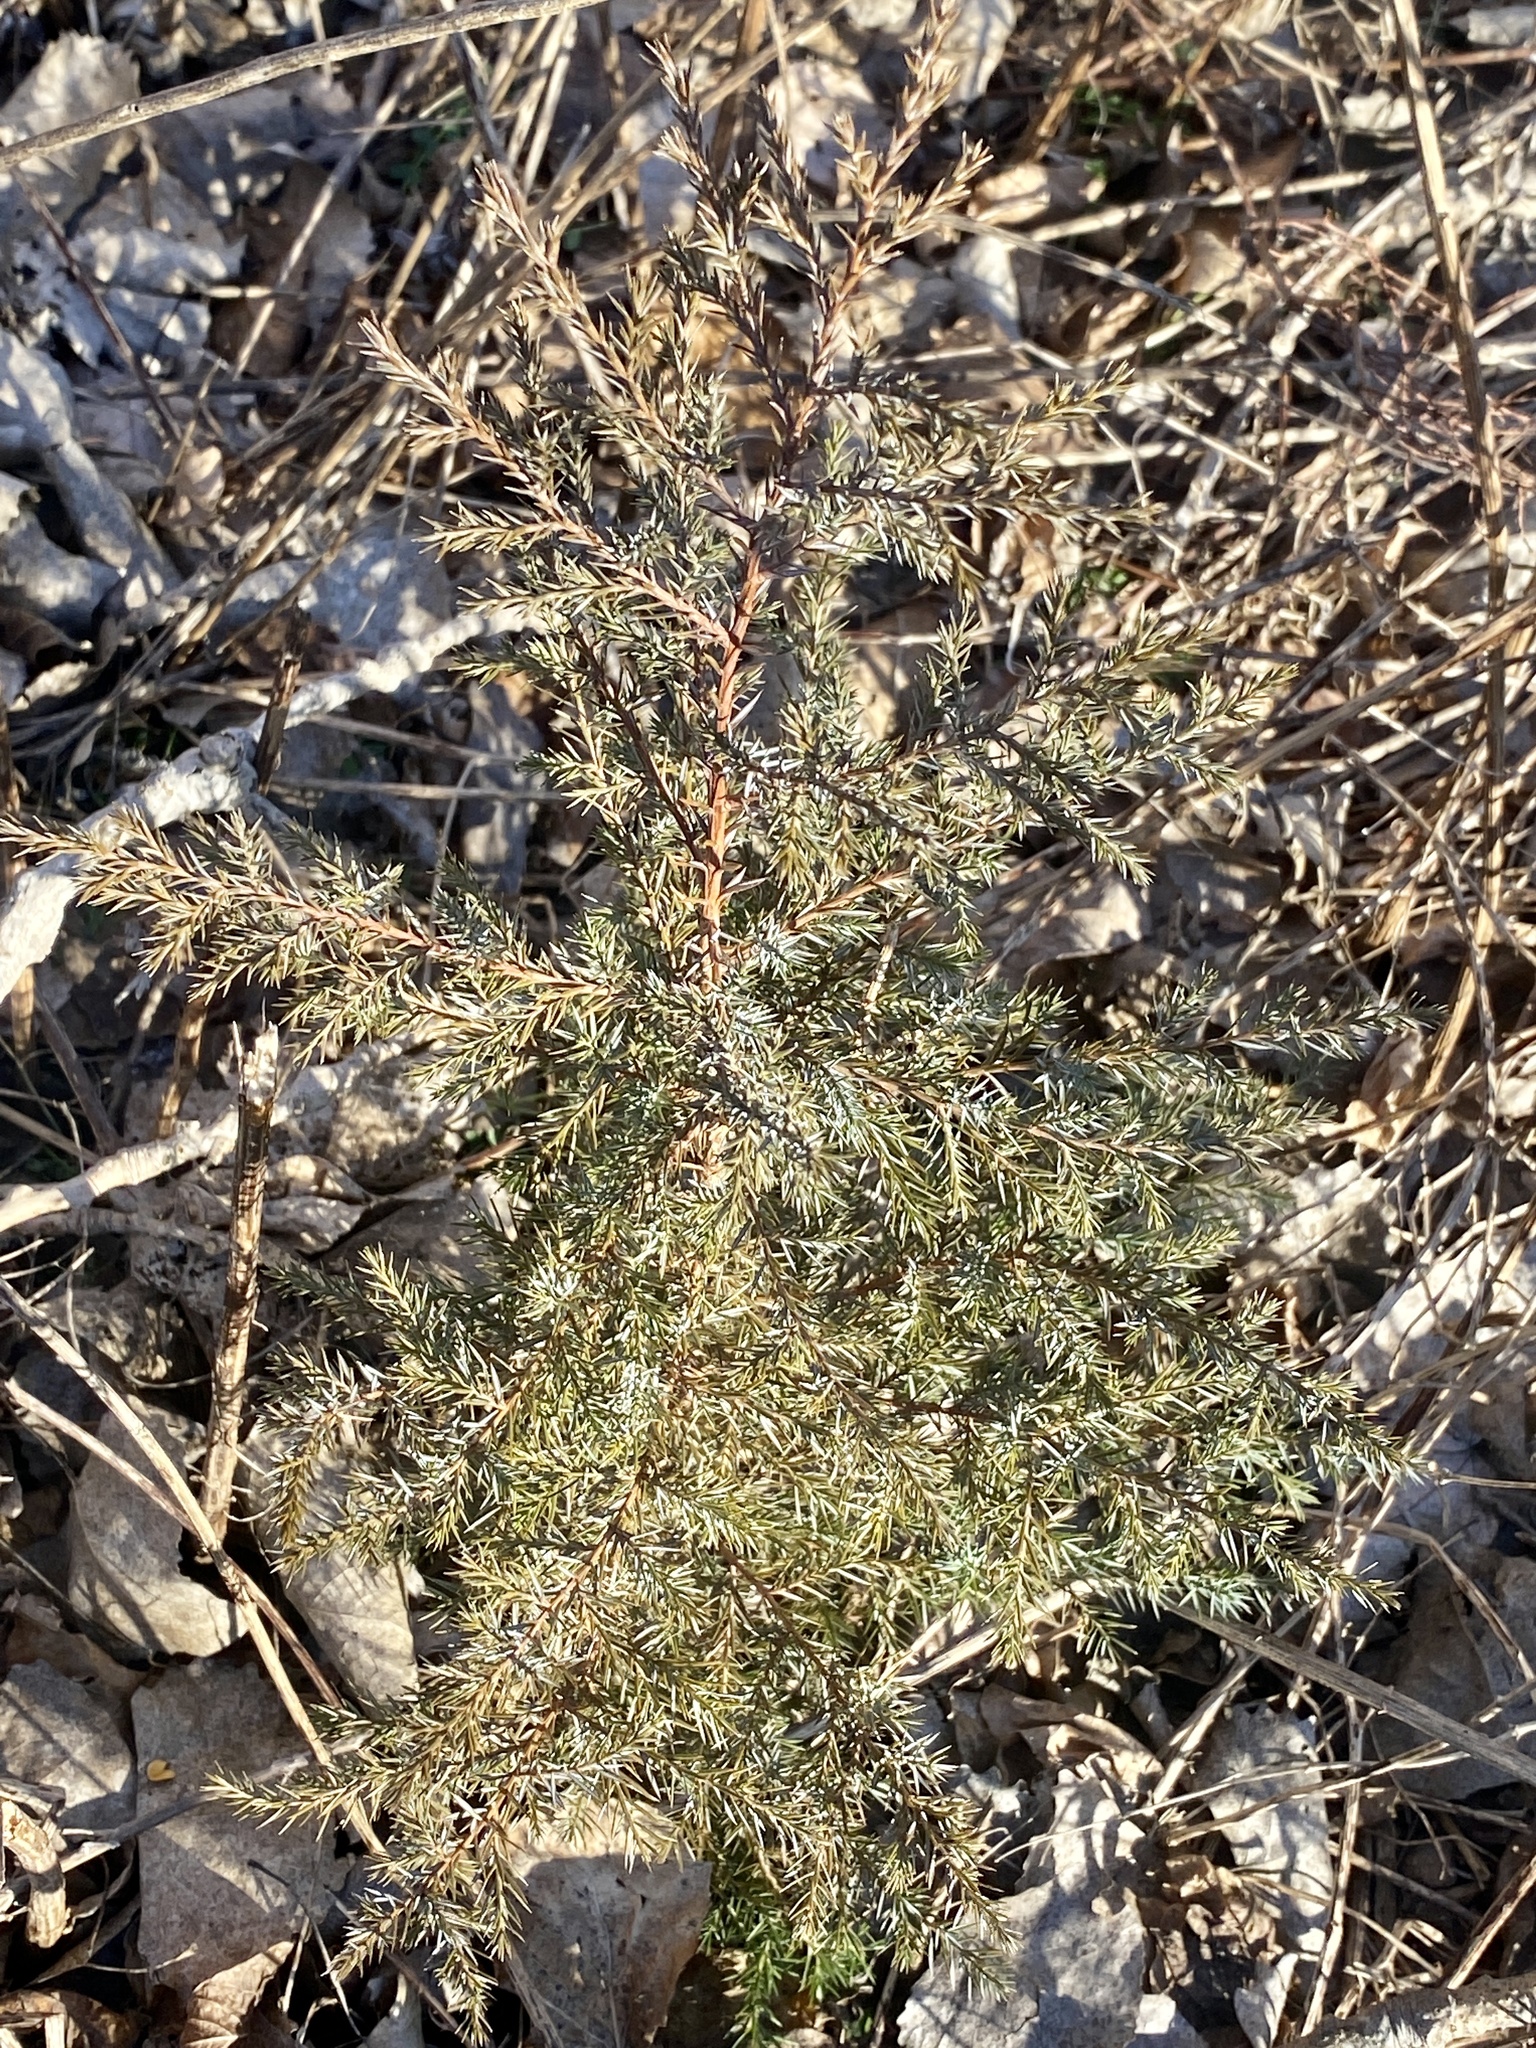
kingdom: Plantae
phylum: Tracheophyta
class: Pinopsida
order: Pinales
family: Cupressaceae
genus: Juniperus
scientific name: Juniperus virginiana
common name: Red juniper
